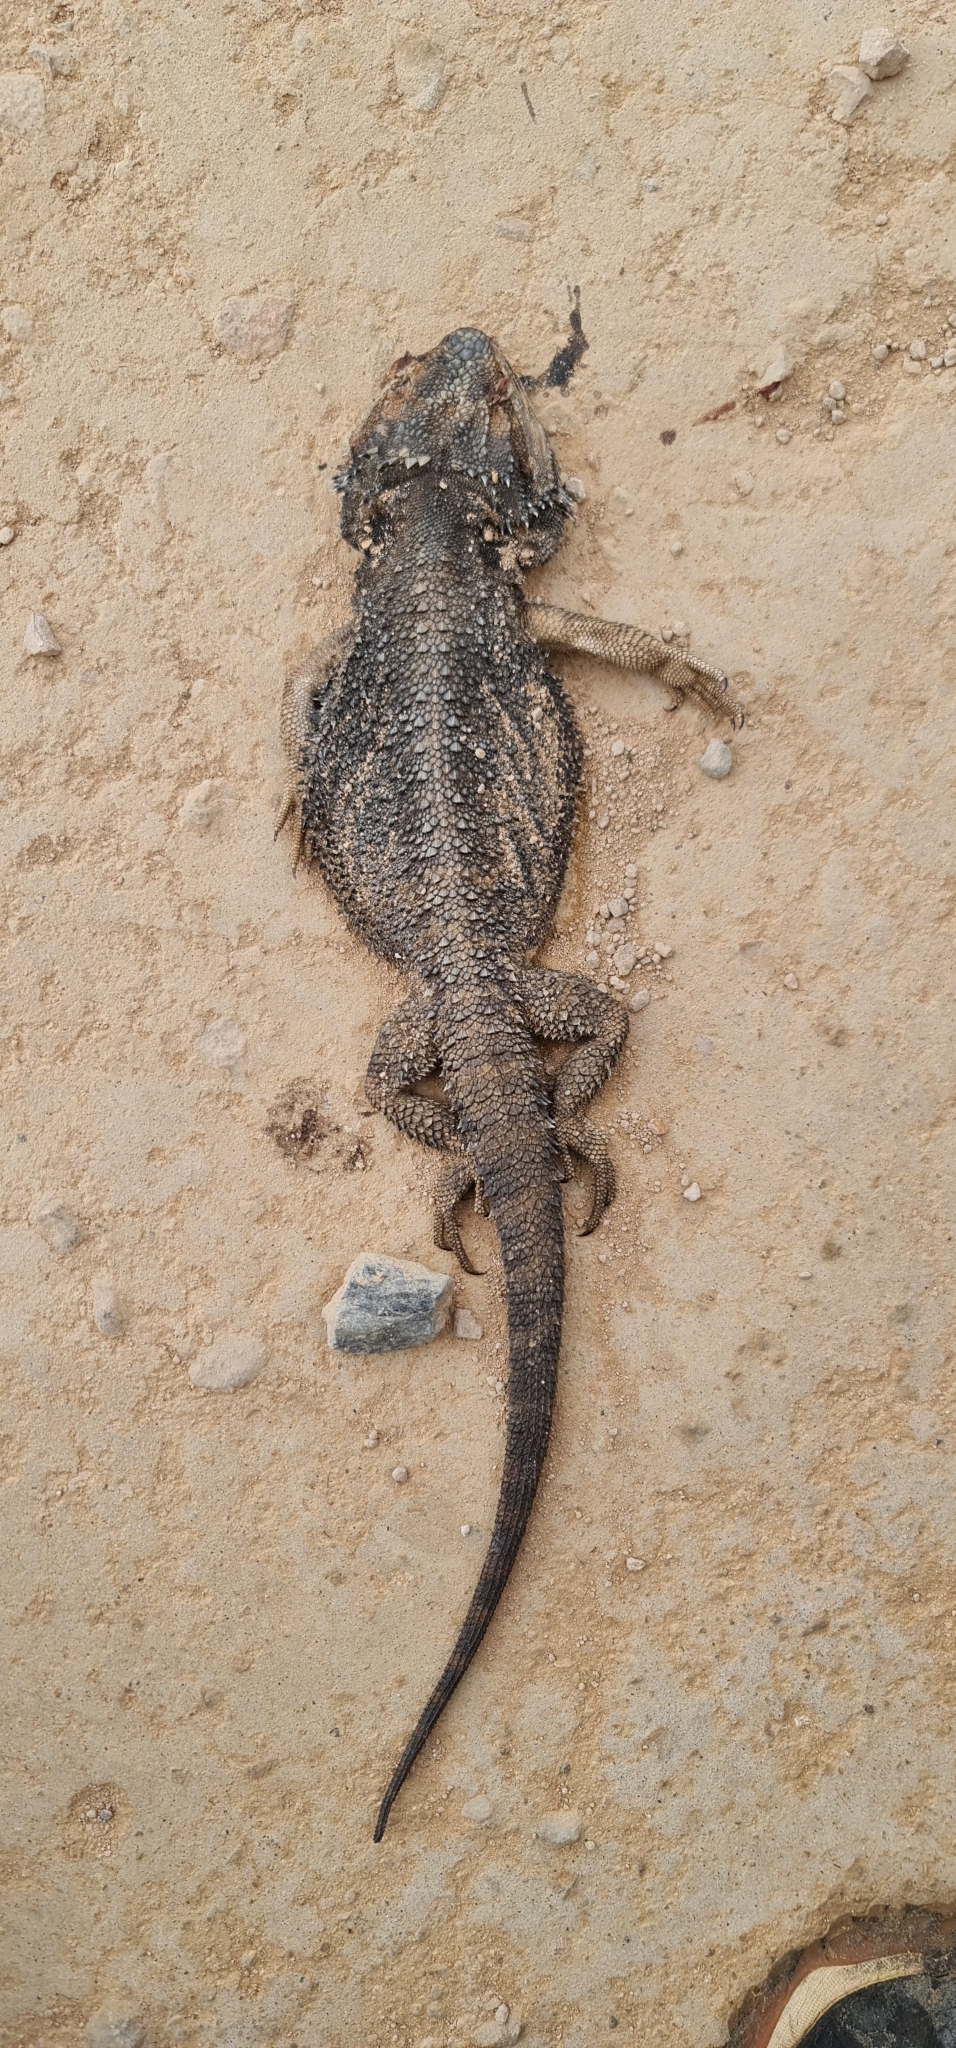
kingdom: Animalia
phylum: Chordata
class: Squamata
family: Agamidae
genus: Pogona
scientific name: Pogona barbata
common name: Bearded dragon
